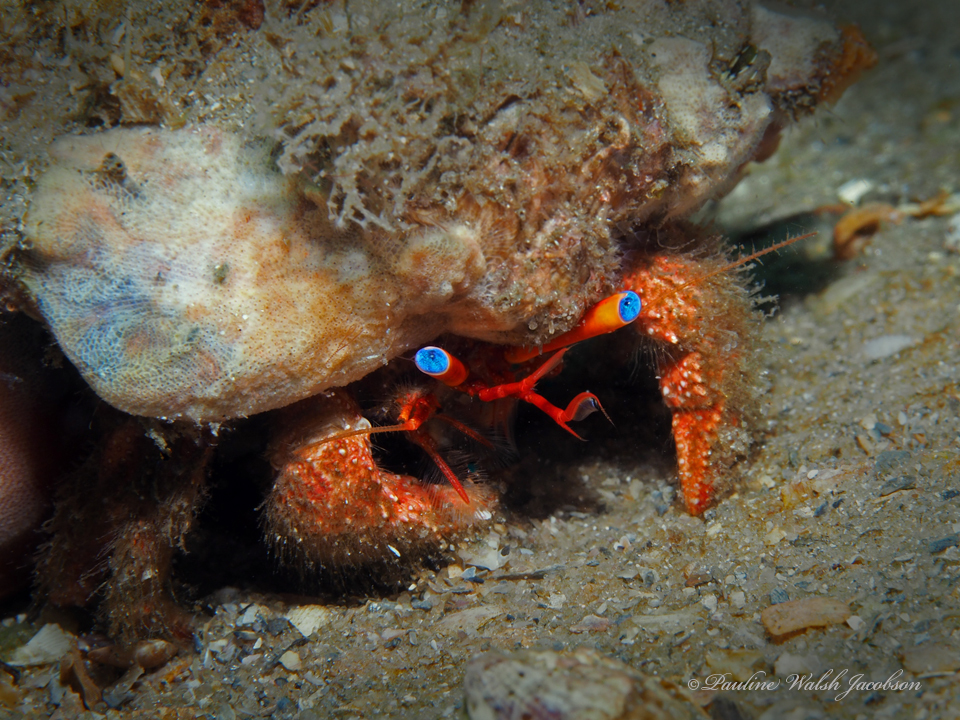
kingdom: Animalia
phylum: Arthropoda
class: Malacostraca
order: Decapoda
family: Diogenidae
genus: Paguristes
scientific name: Paguristes sericeus
